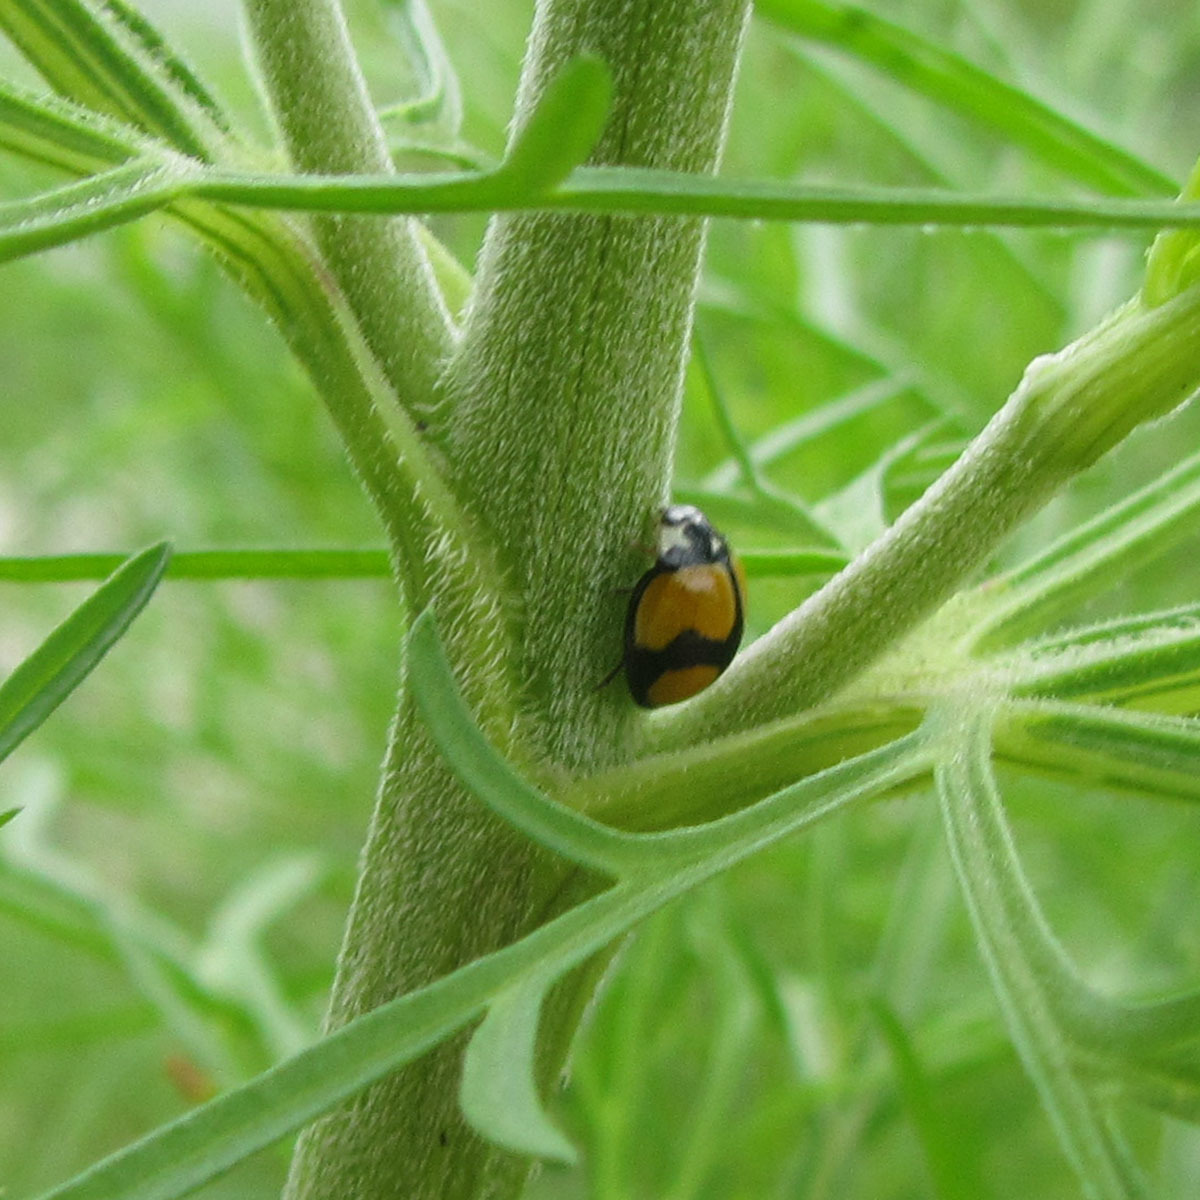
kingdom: Animalia
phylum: Arthropoda
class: Insecta
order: Coleoptera
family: Coccinellidae
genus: Oenopia
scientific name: Oenopia
